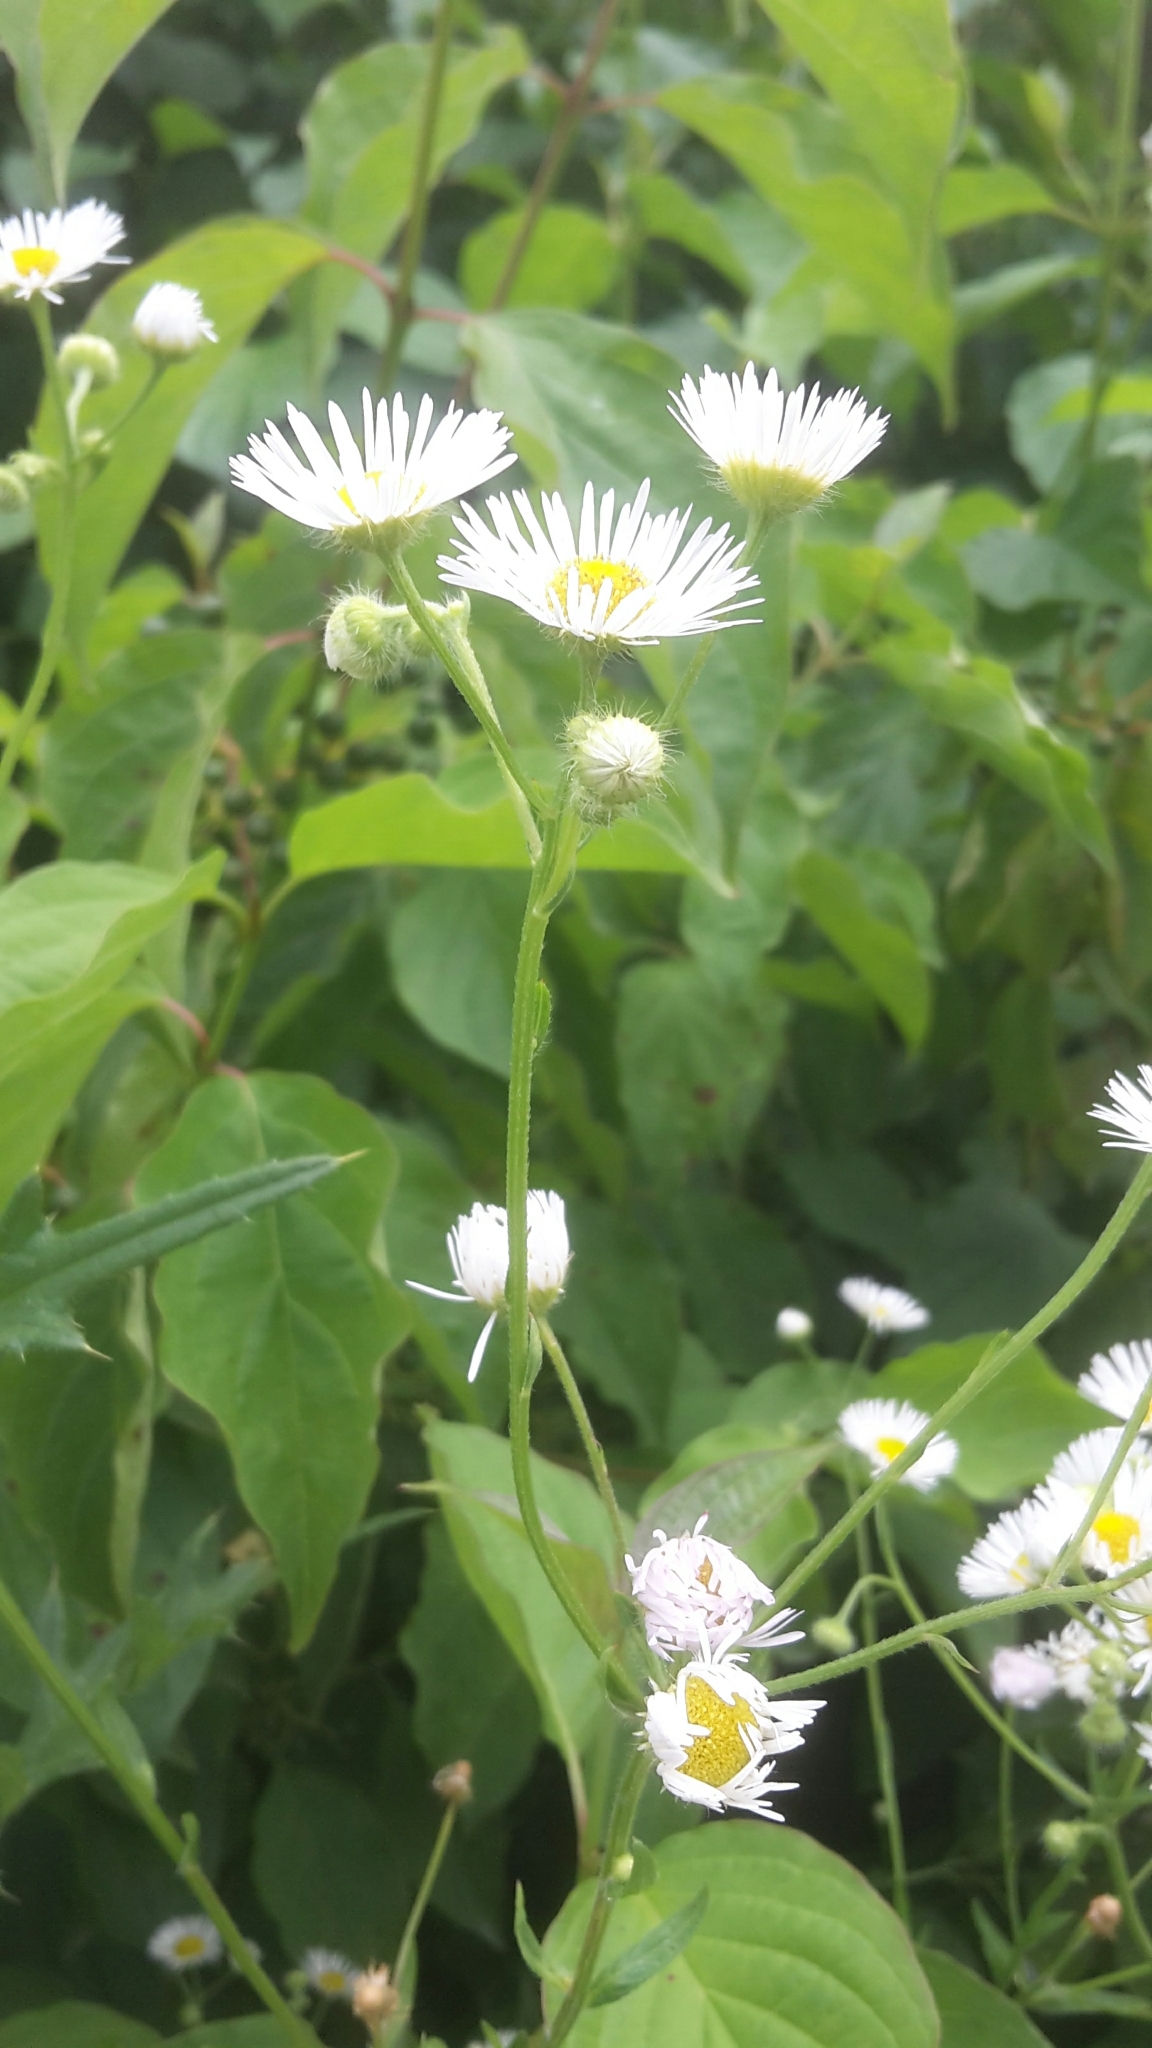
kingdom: Plantae
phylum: Tracheophyta
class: Magnoliopsida
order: Asterales
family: Asteraceae
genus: Erigeron
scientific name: Erigeron annuus
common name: Tall fleabane
